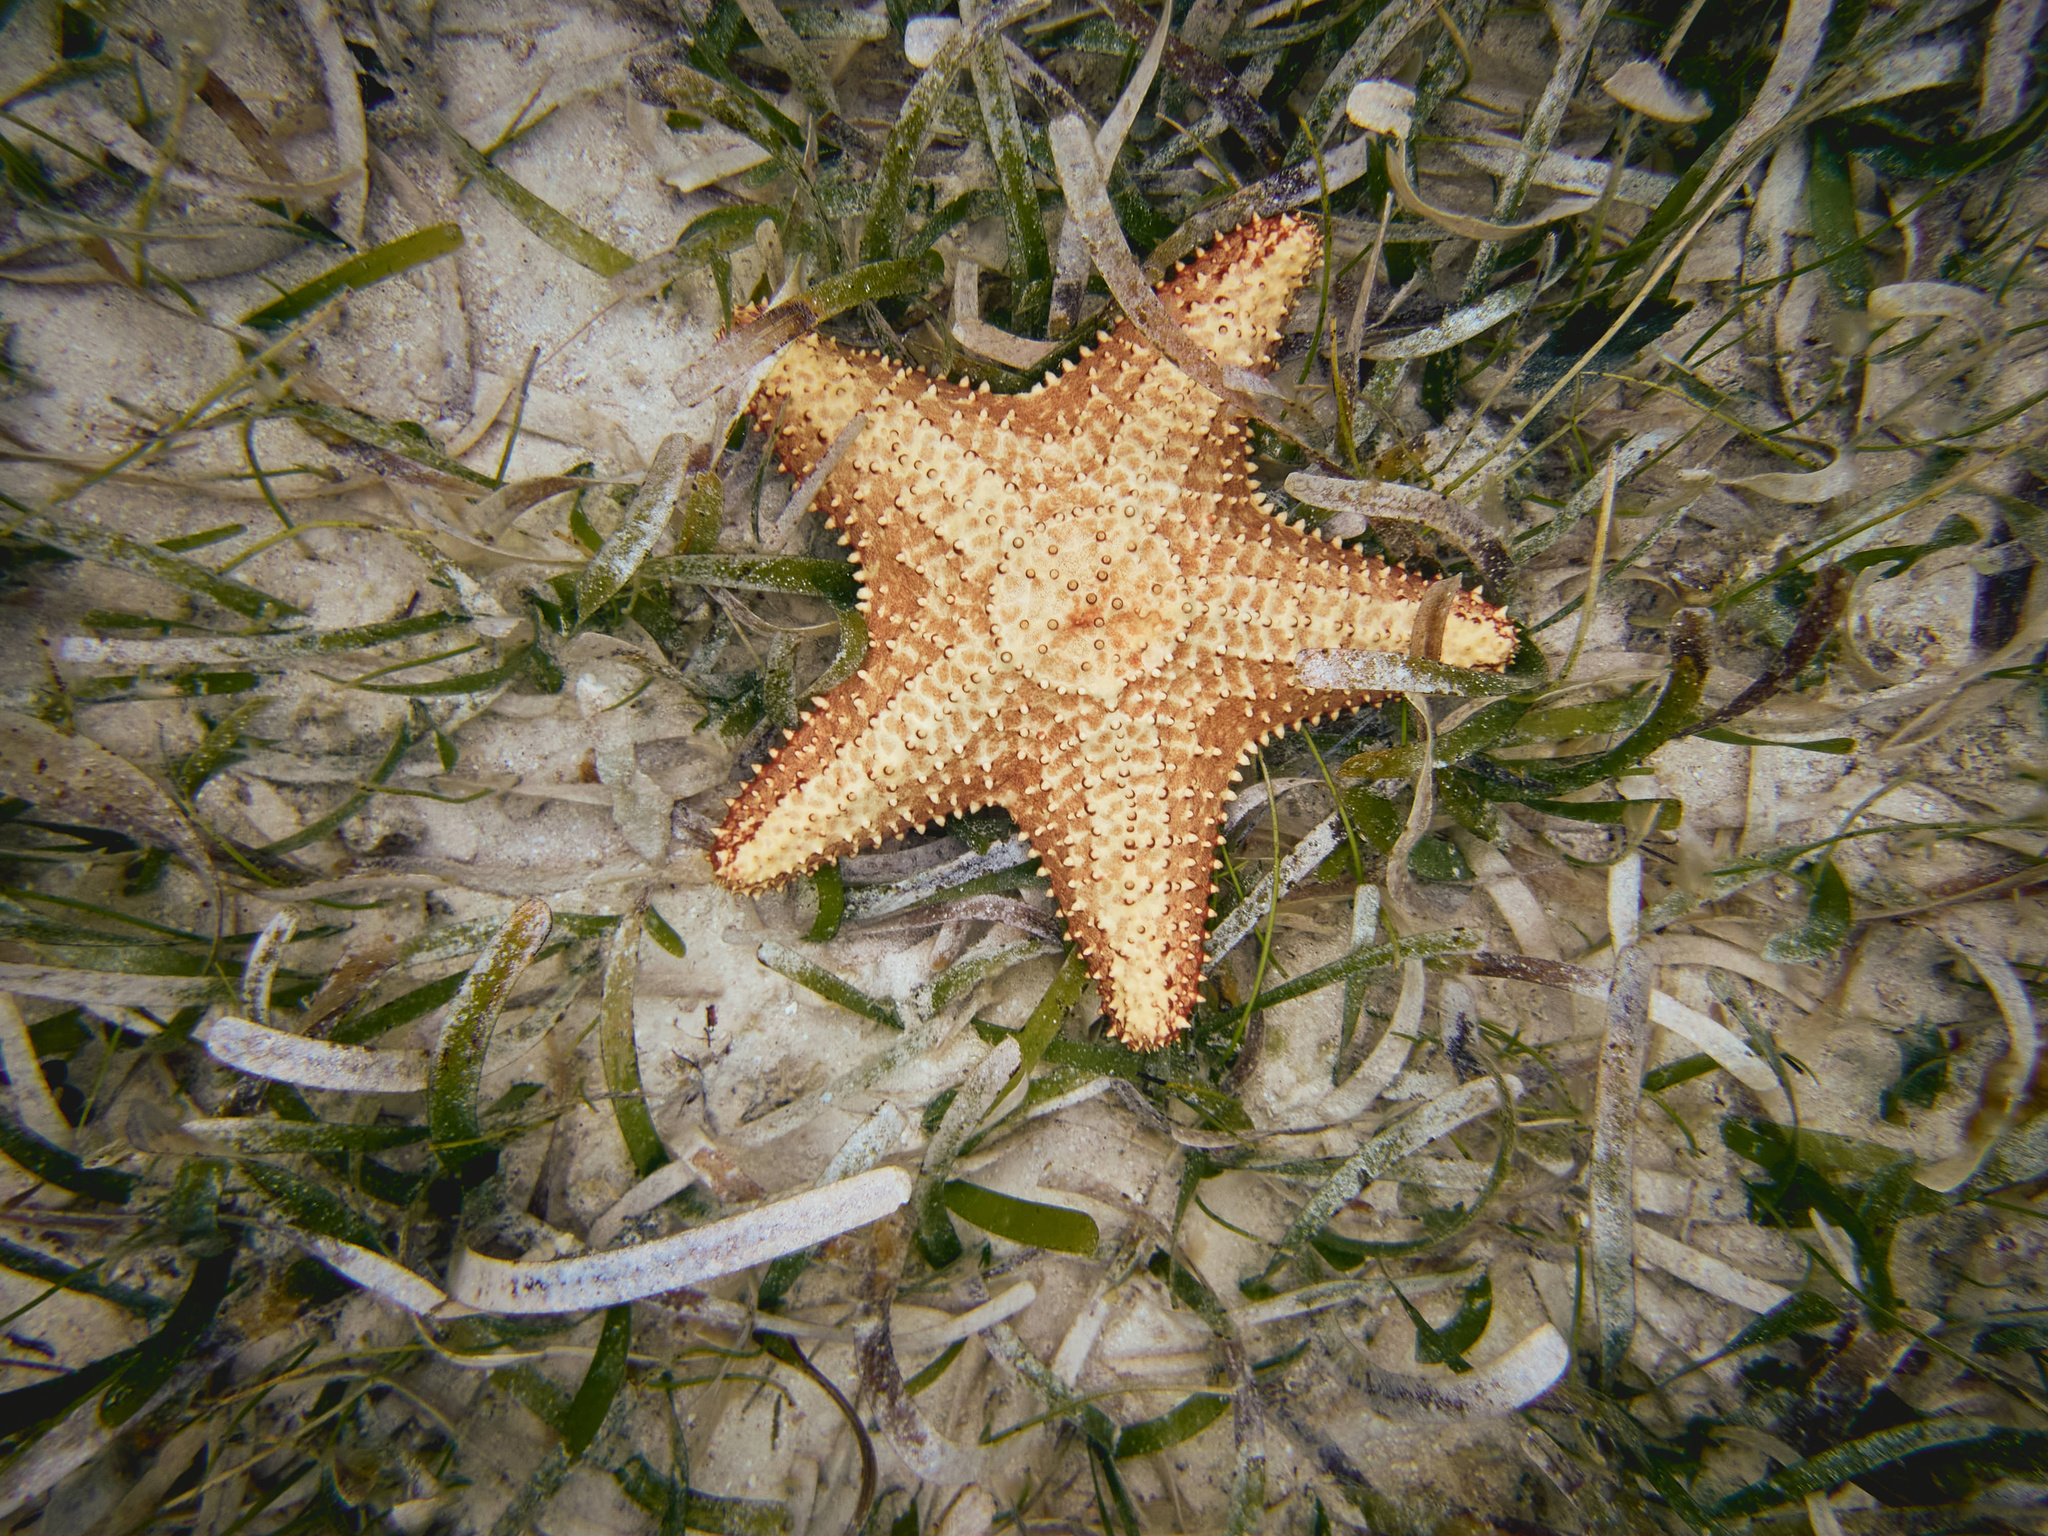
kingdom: Animalia
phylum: Echinodermata
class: Asteroidea
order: Valvatida
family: Oreasteridae
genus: Oreaster
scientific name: Oreaster reticulatus
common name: Cushion sea star
